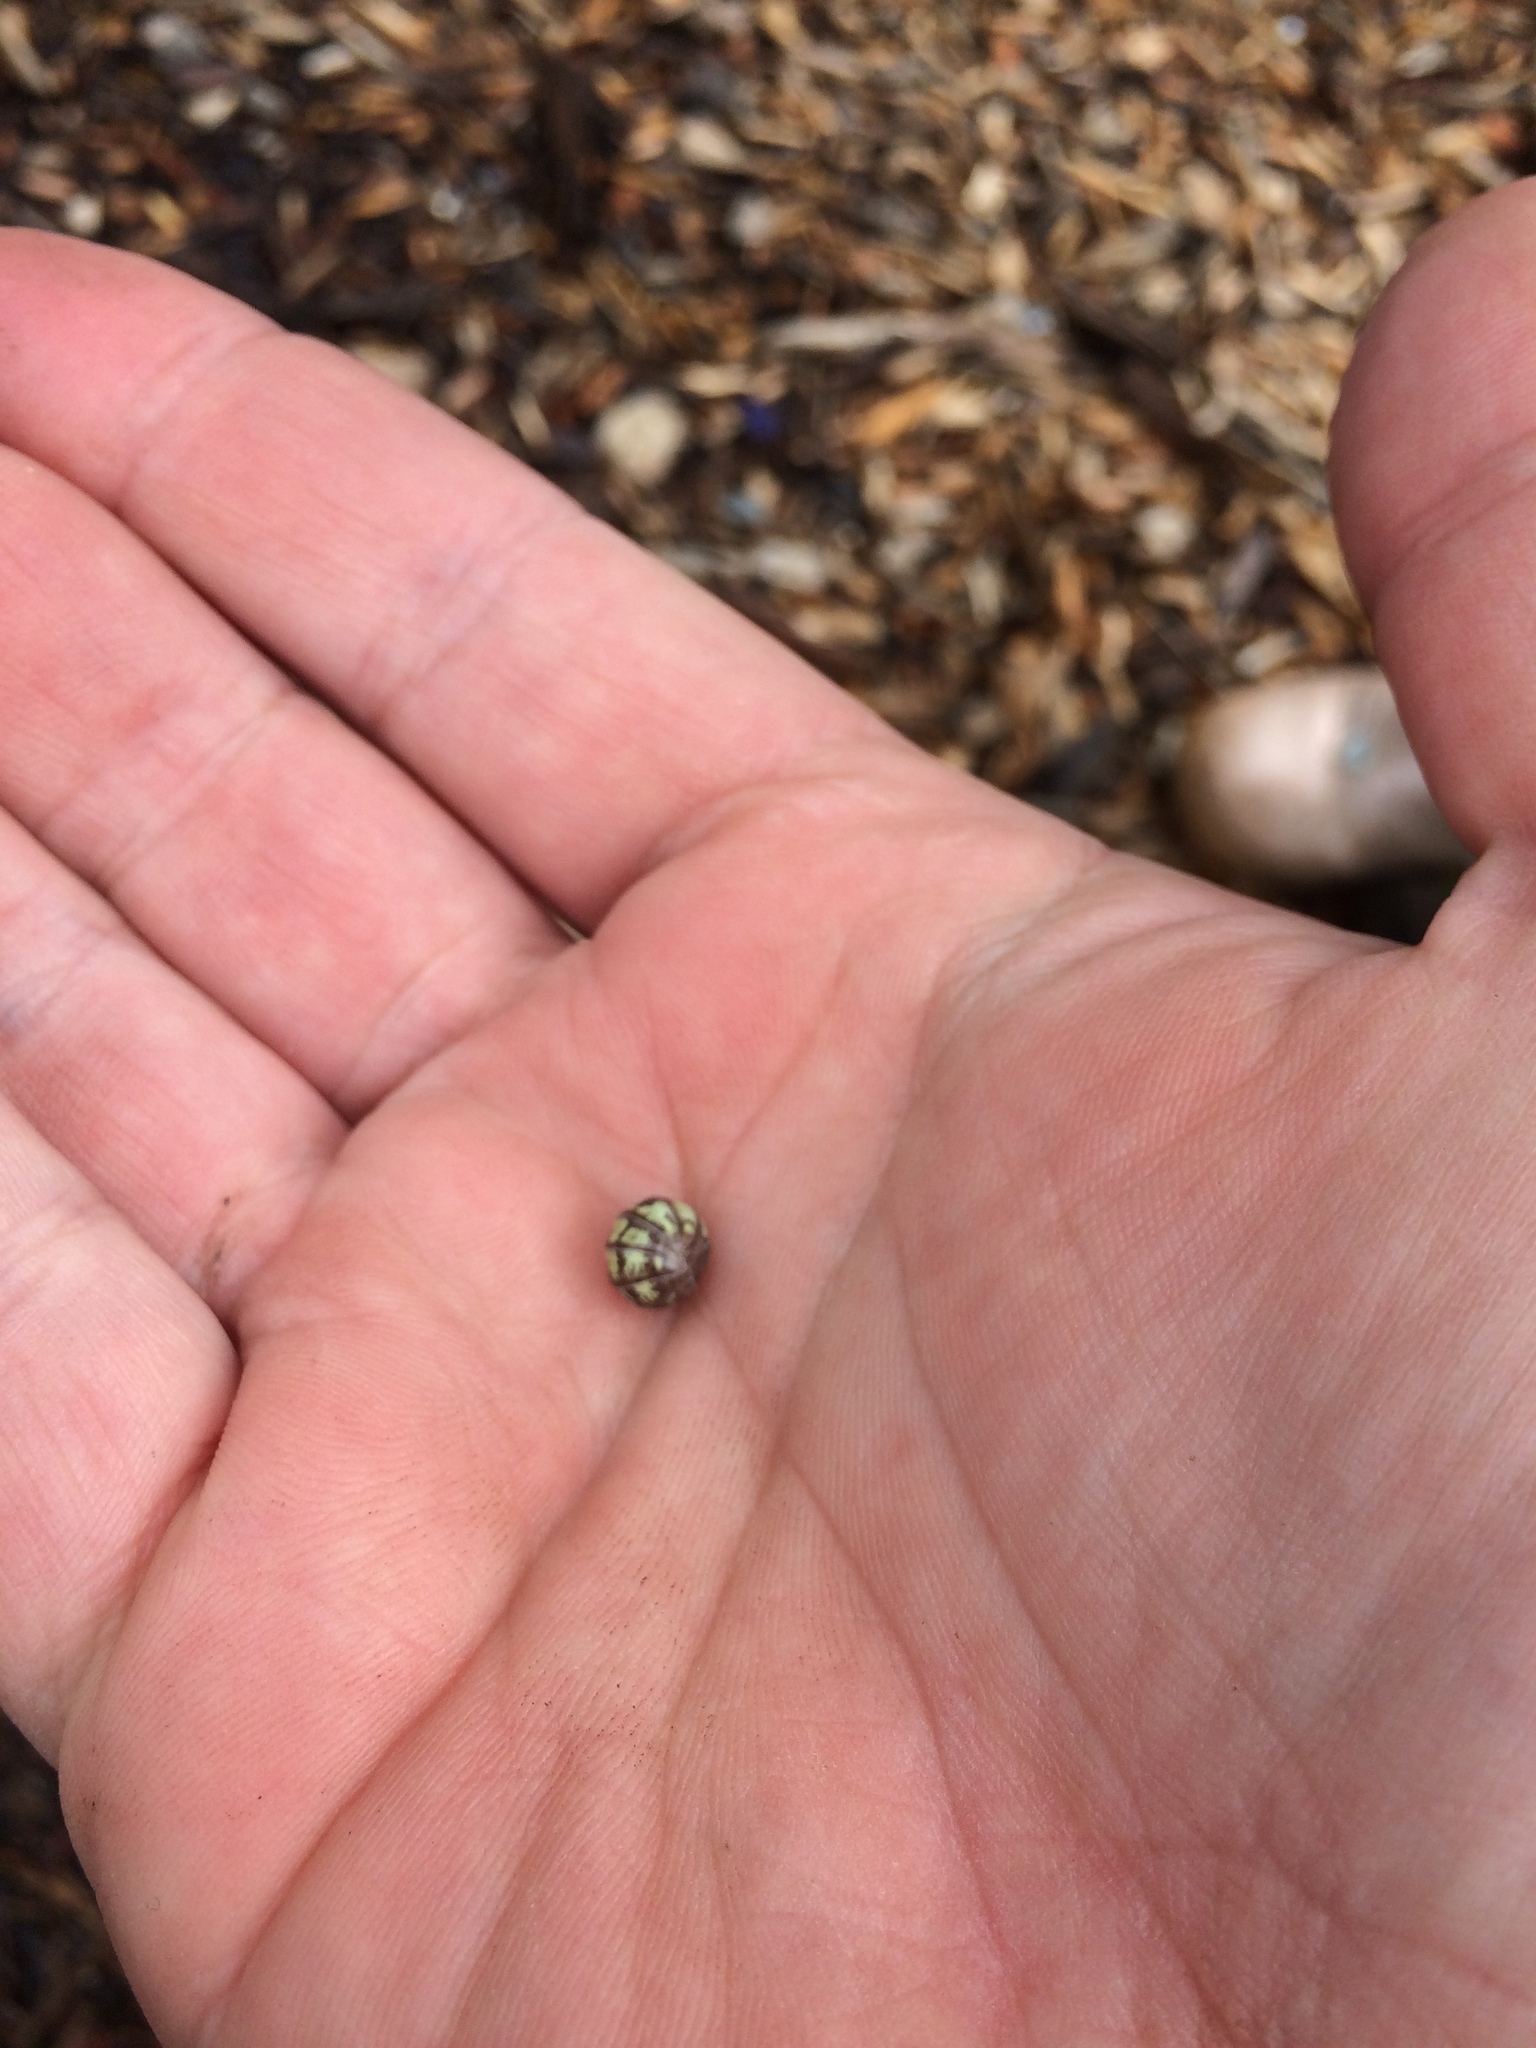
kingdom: Animalia
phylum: Arthropoda
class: Malacostraca
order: Isopoda
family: Armadillidiidae
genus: Armadillidium
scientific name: Armadillidium vulgare
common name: Common pill woodlouse
